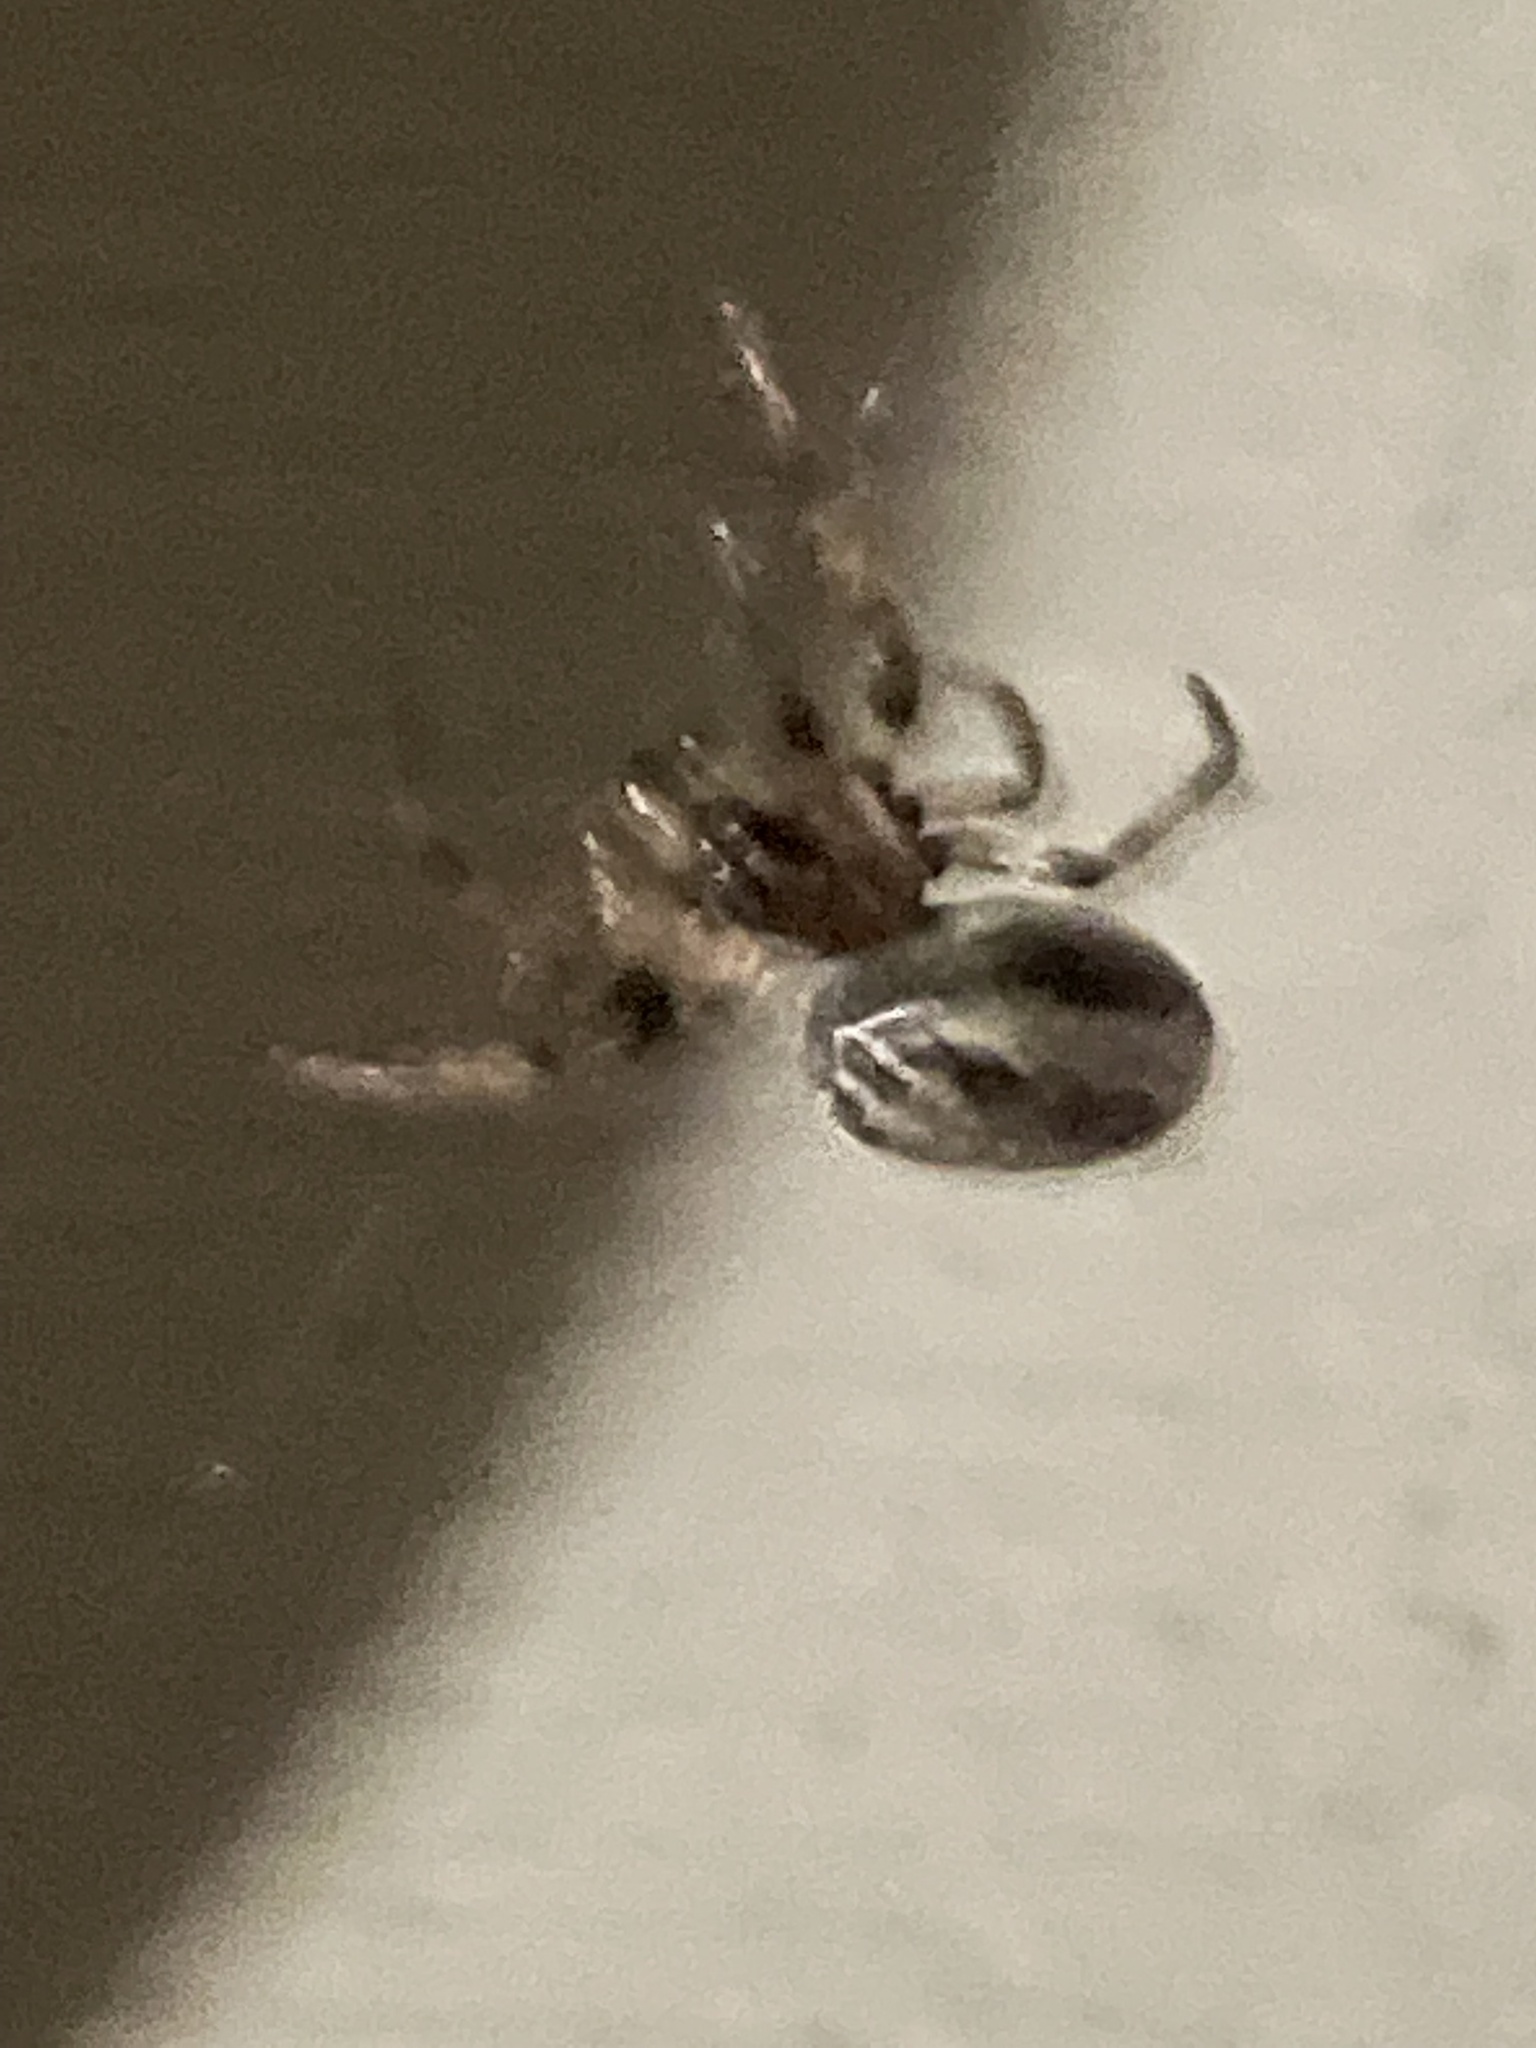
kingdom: Animalia
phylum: Arthropoda
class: Arachnida
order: Araneae
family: Araneidae
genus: Larinioides
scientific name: Larinioides cornutus
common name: Furrow orbweaver
